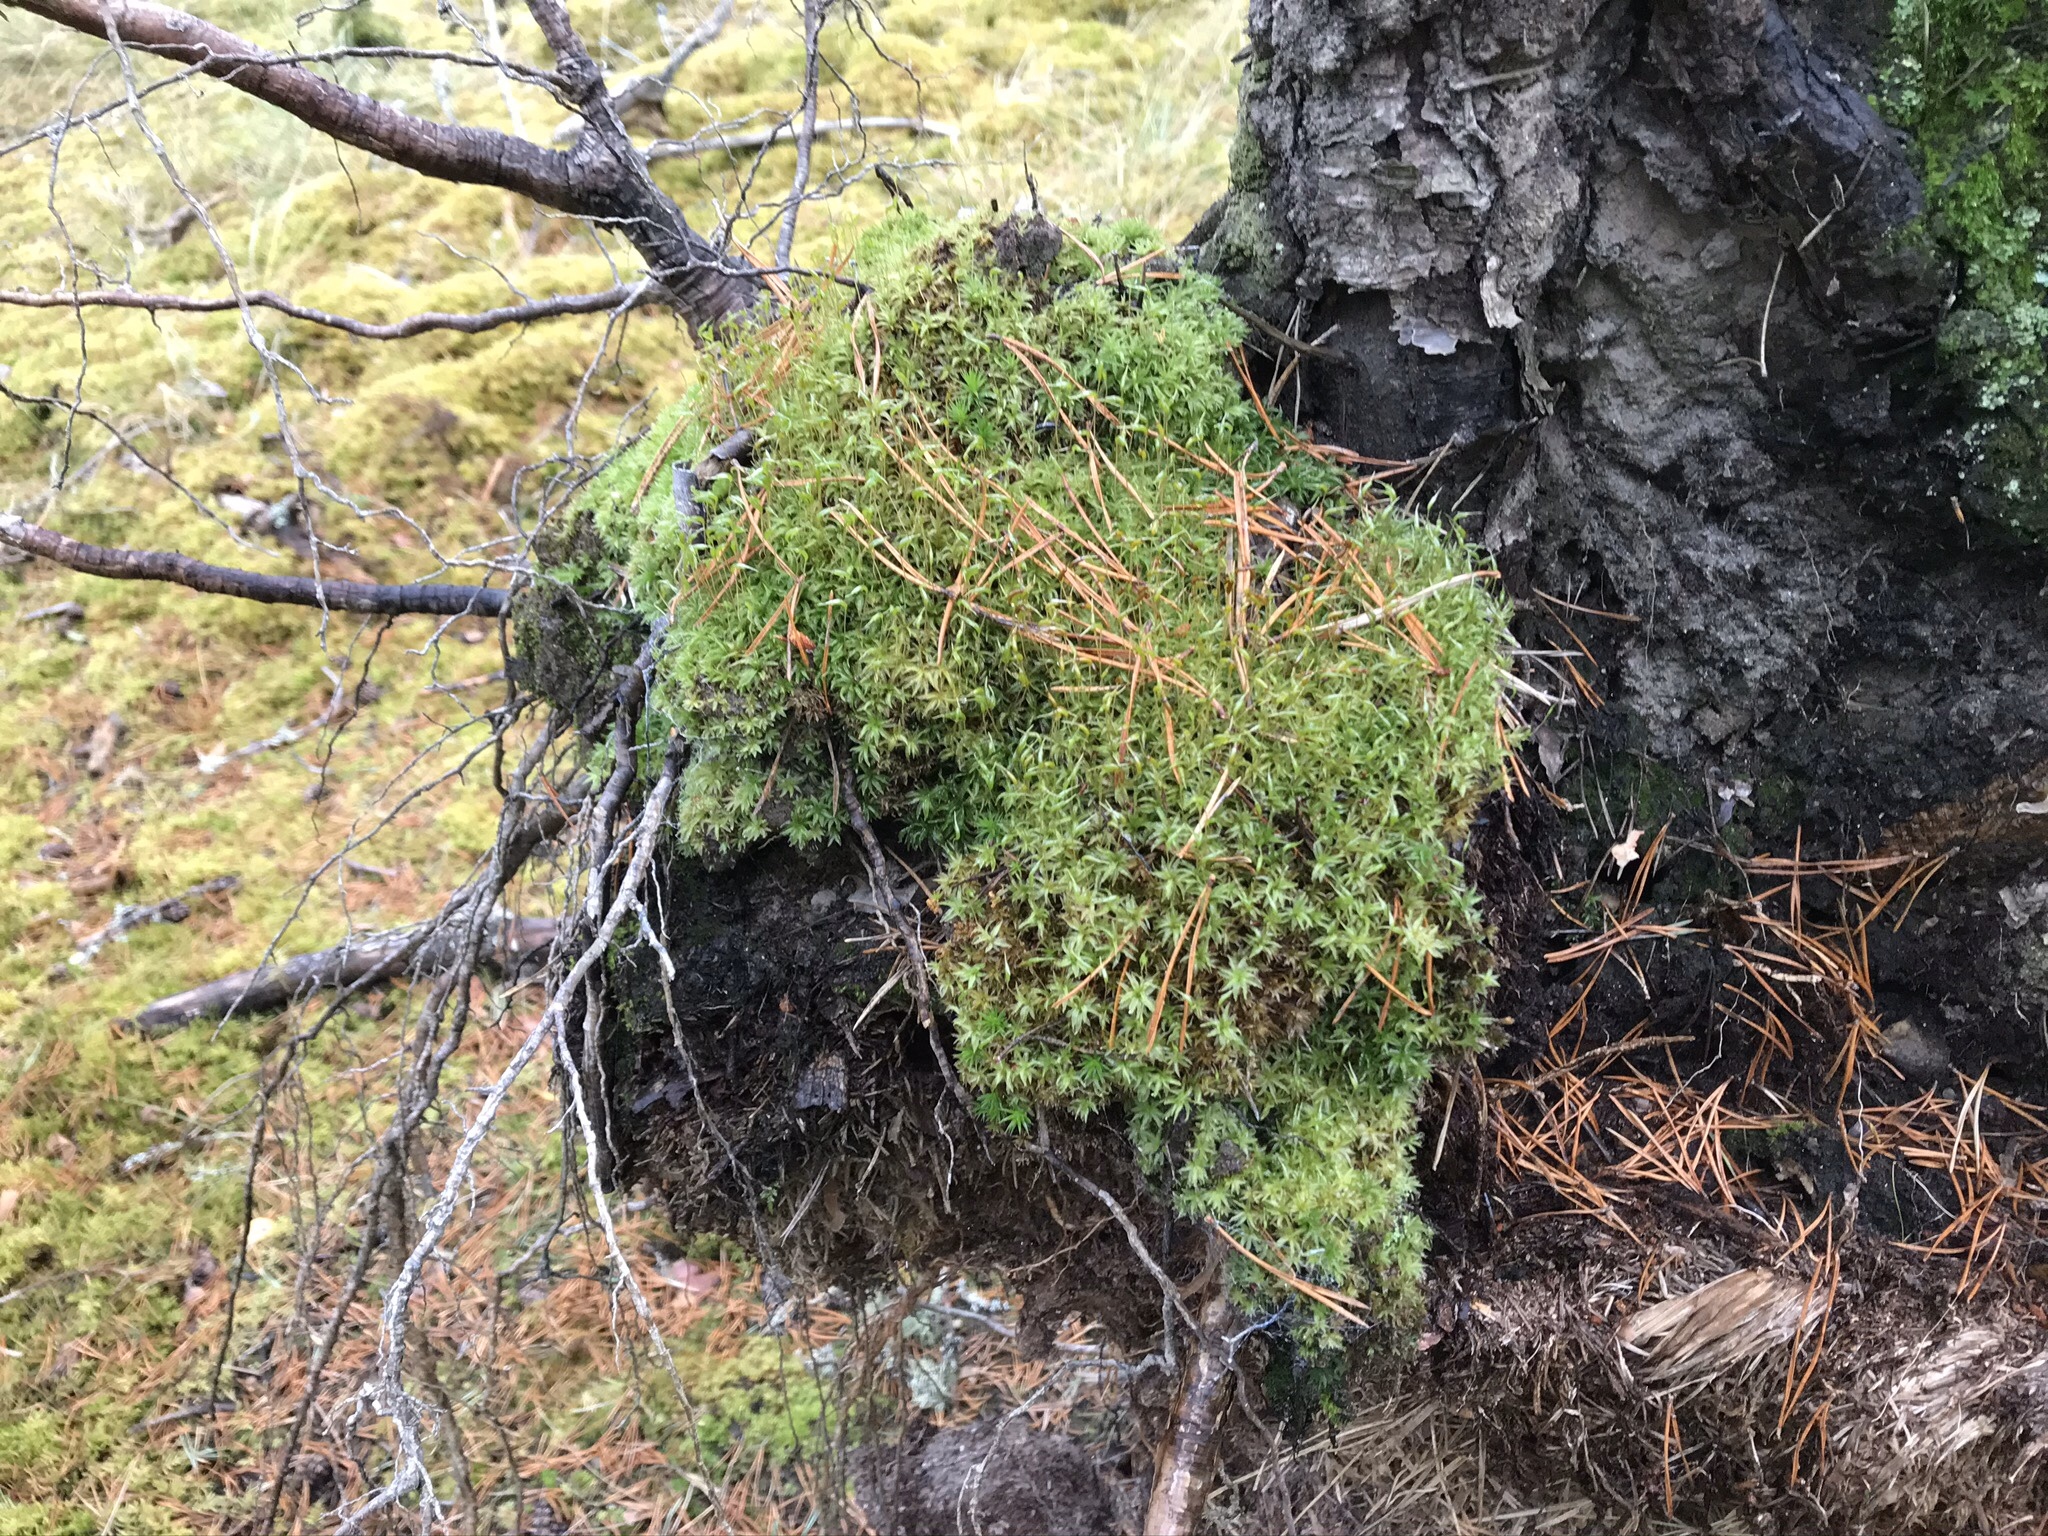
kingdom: Plantae
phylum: Bryophyta
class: Polytrichopsida
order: Polytrichales
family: Polytrichaceae
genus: Atrichum
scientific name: Atrichum undulatum
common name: Common smoothcap
